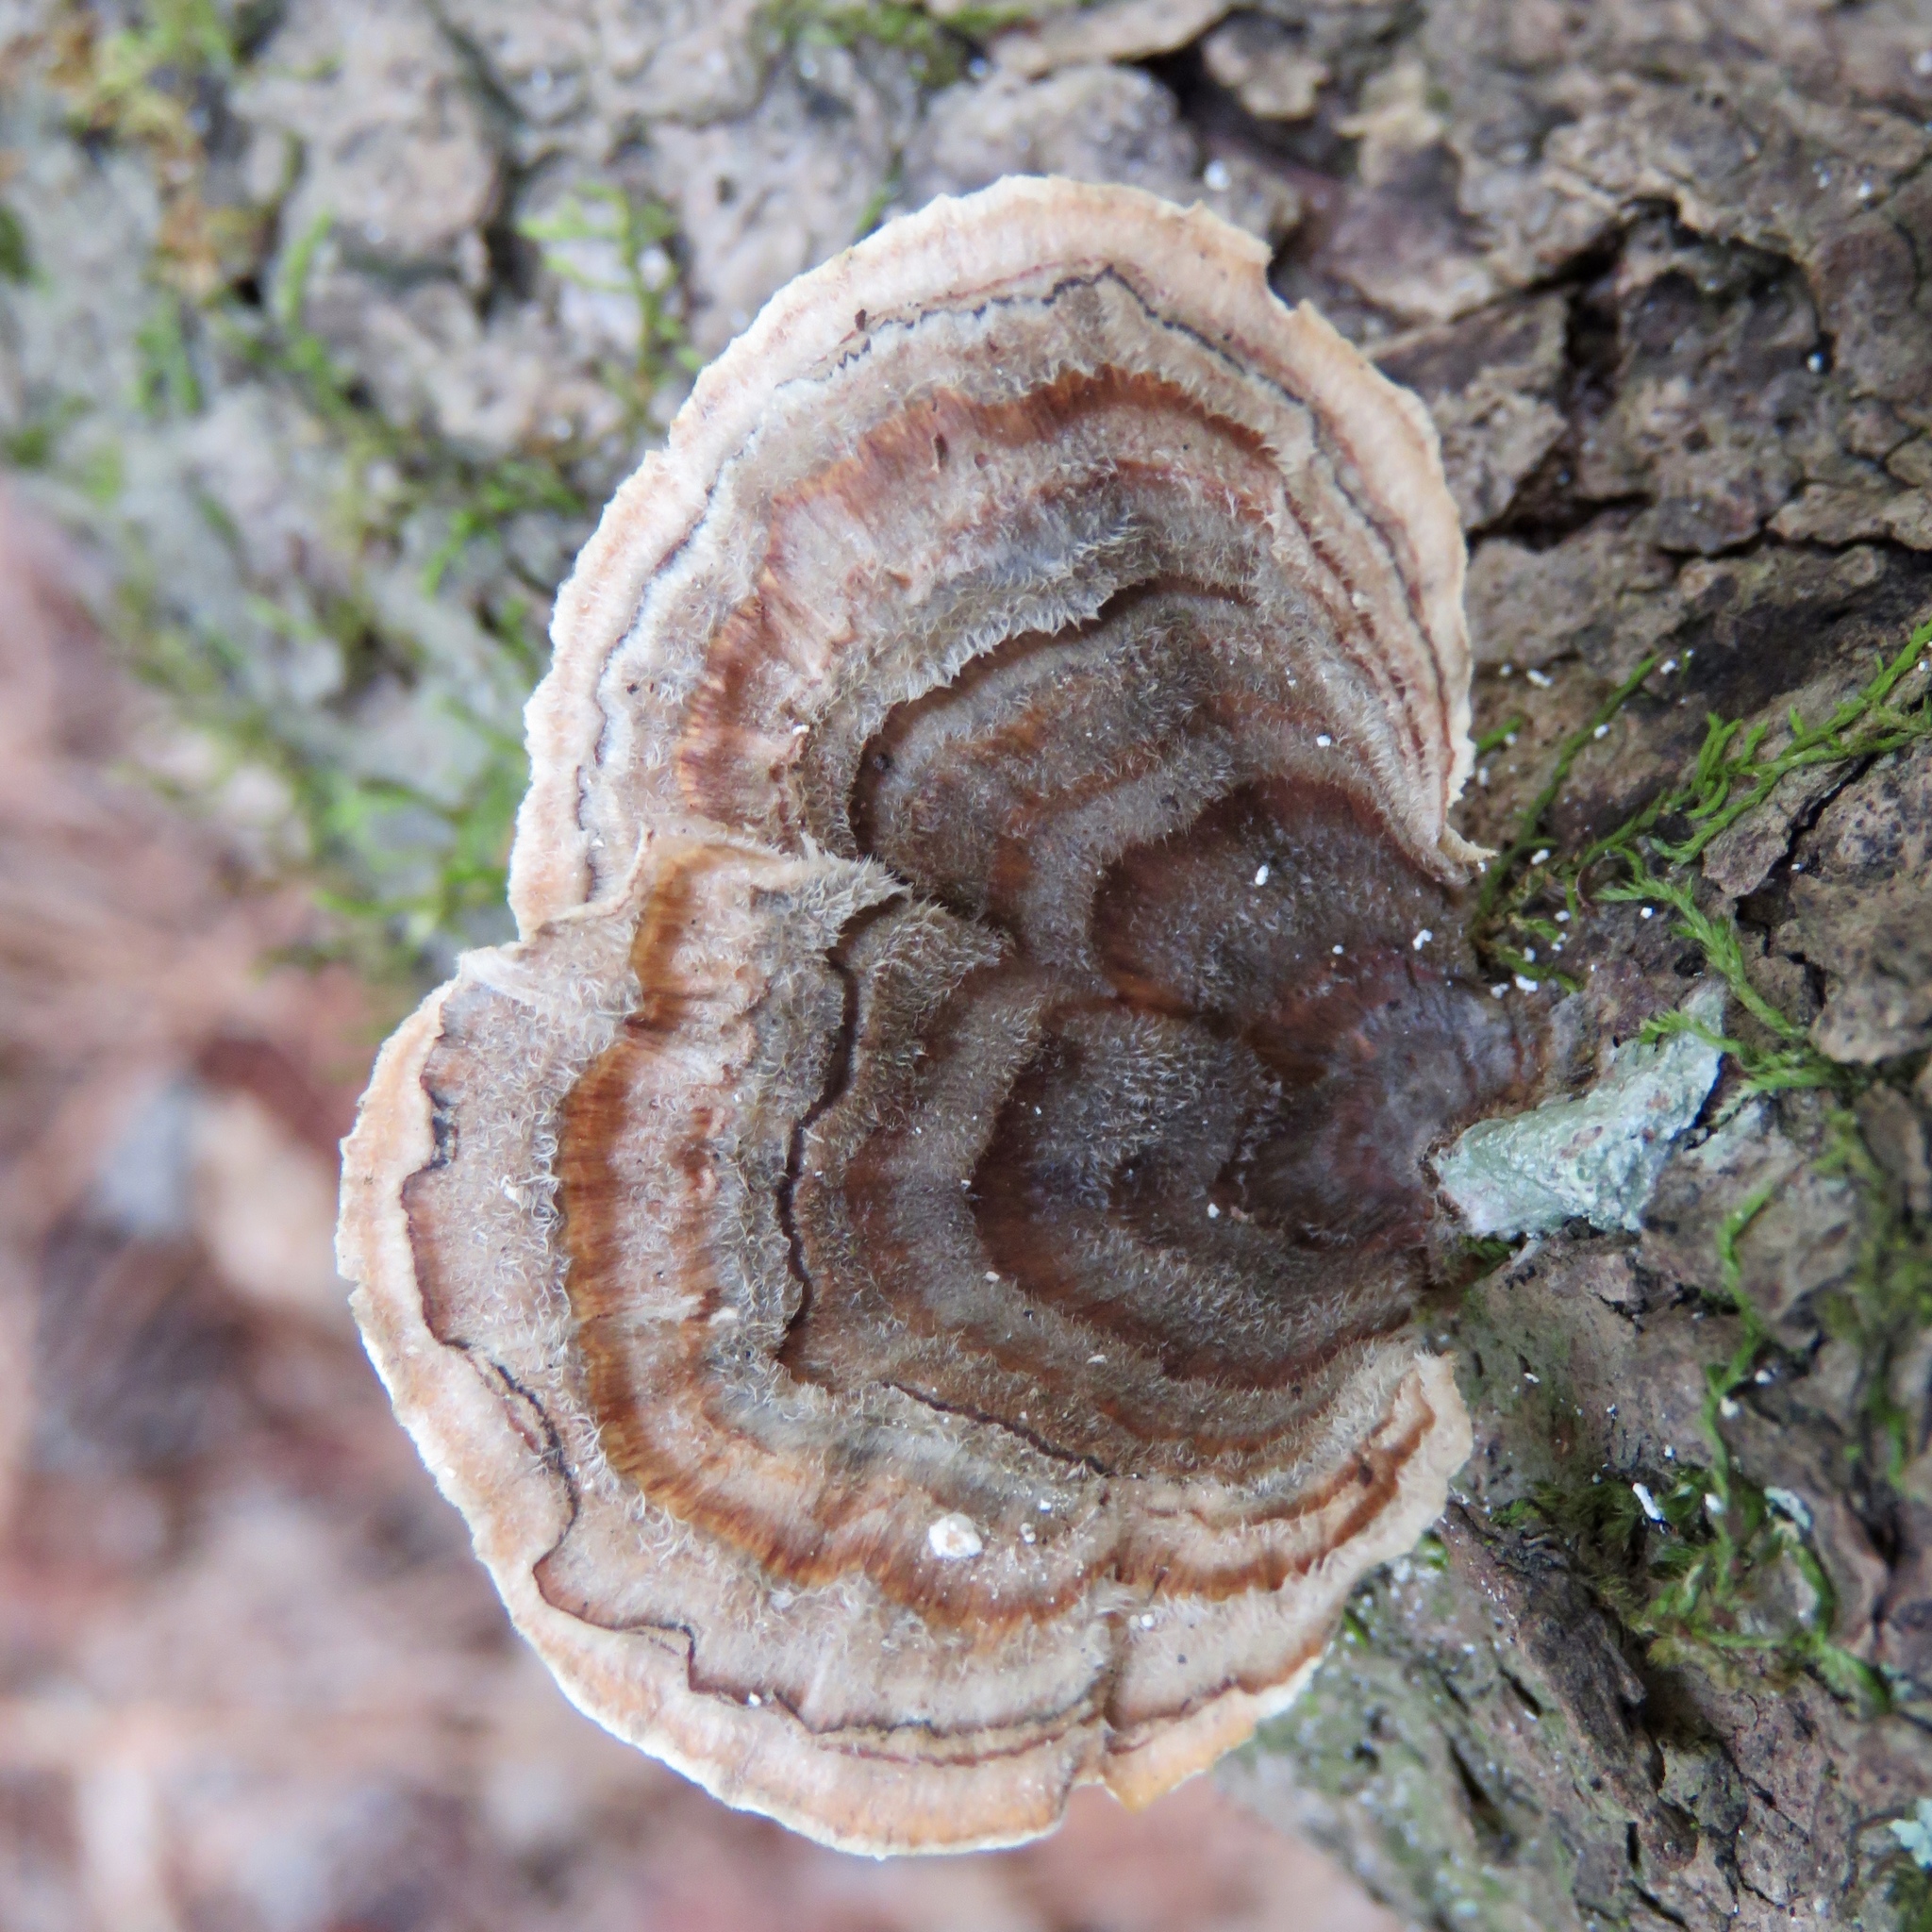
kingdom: Fungi
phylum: Basidiomycota
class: Agaricomycetes
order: Polyporales
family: Polyporaceae
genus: Trametes
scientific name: Trametes versicolor
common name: Turkeytail
